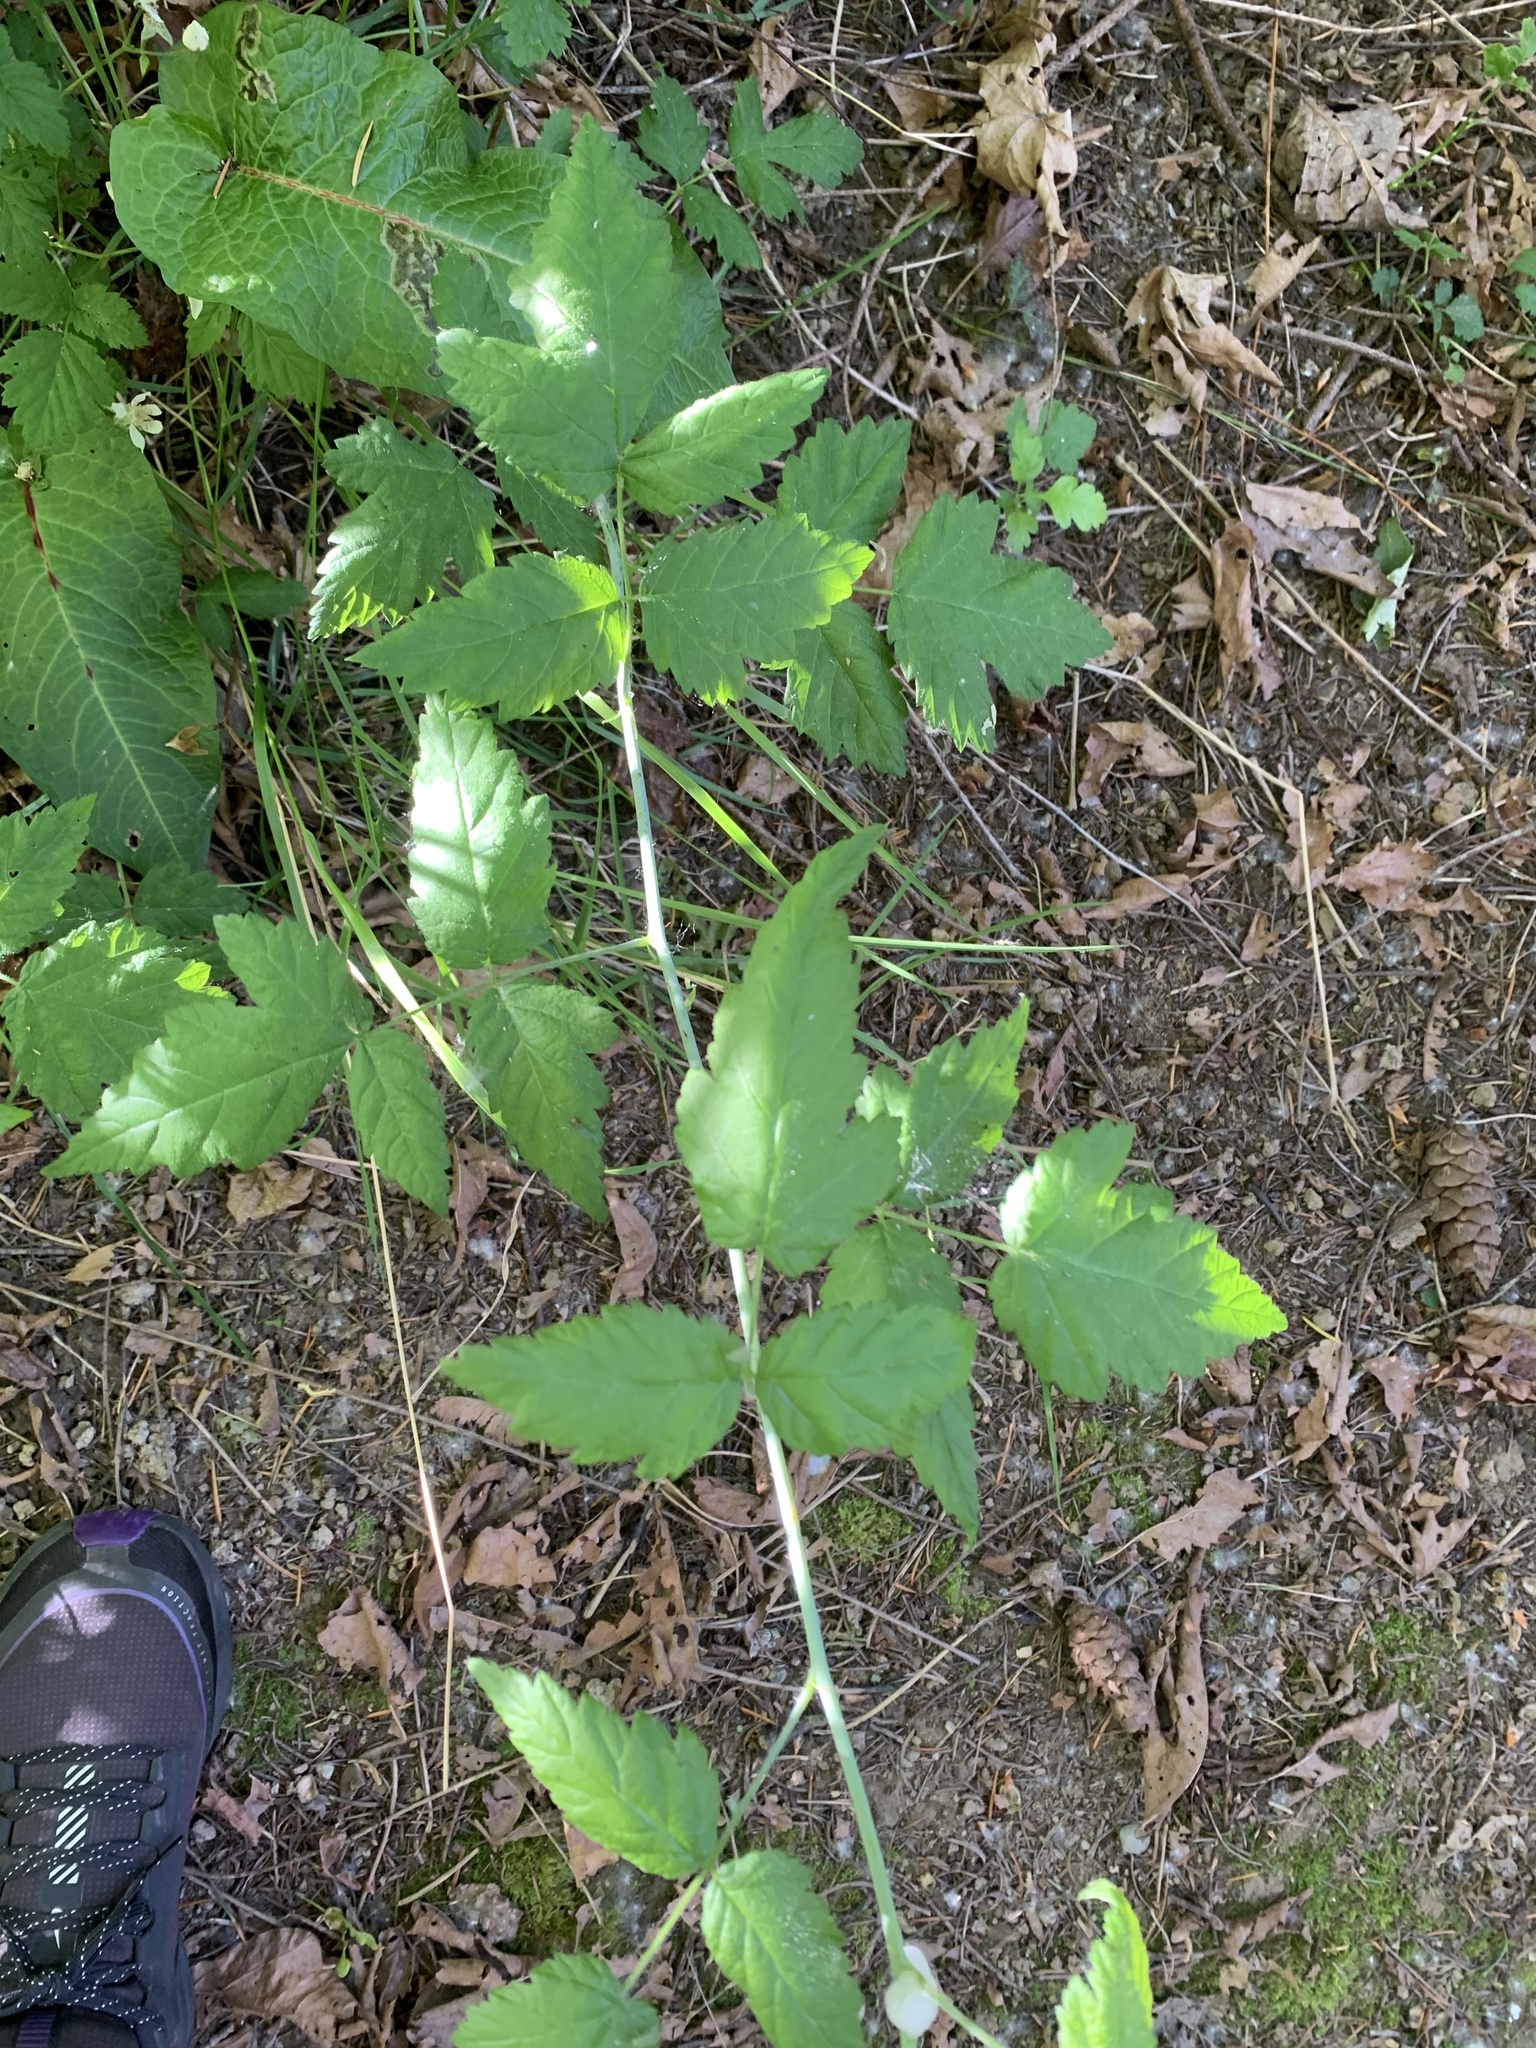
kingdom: Plantae
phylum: Tracheophyta
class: Magnoliopsida
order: Rosales
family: Rosaceae
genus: Rubus
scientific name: Rubus ursinus
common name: Pacific blackberry
